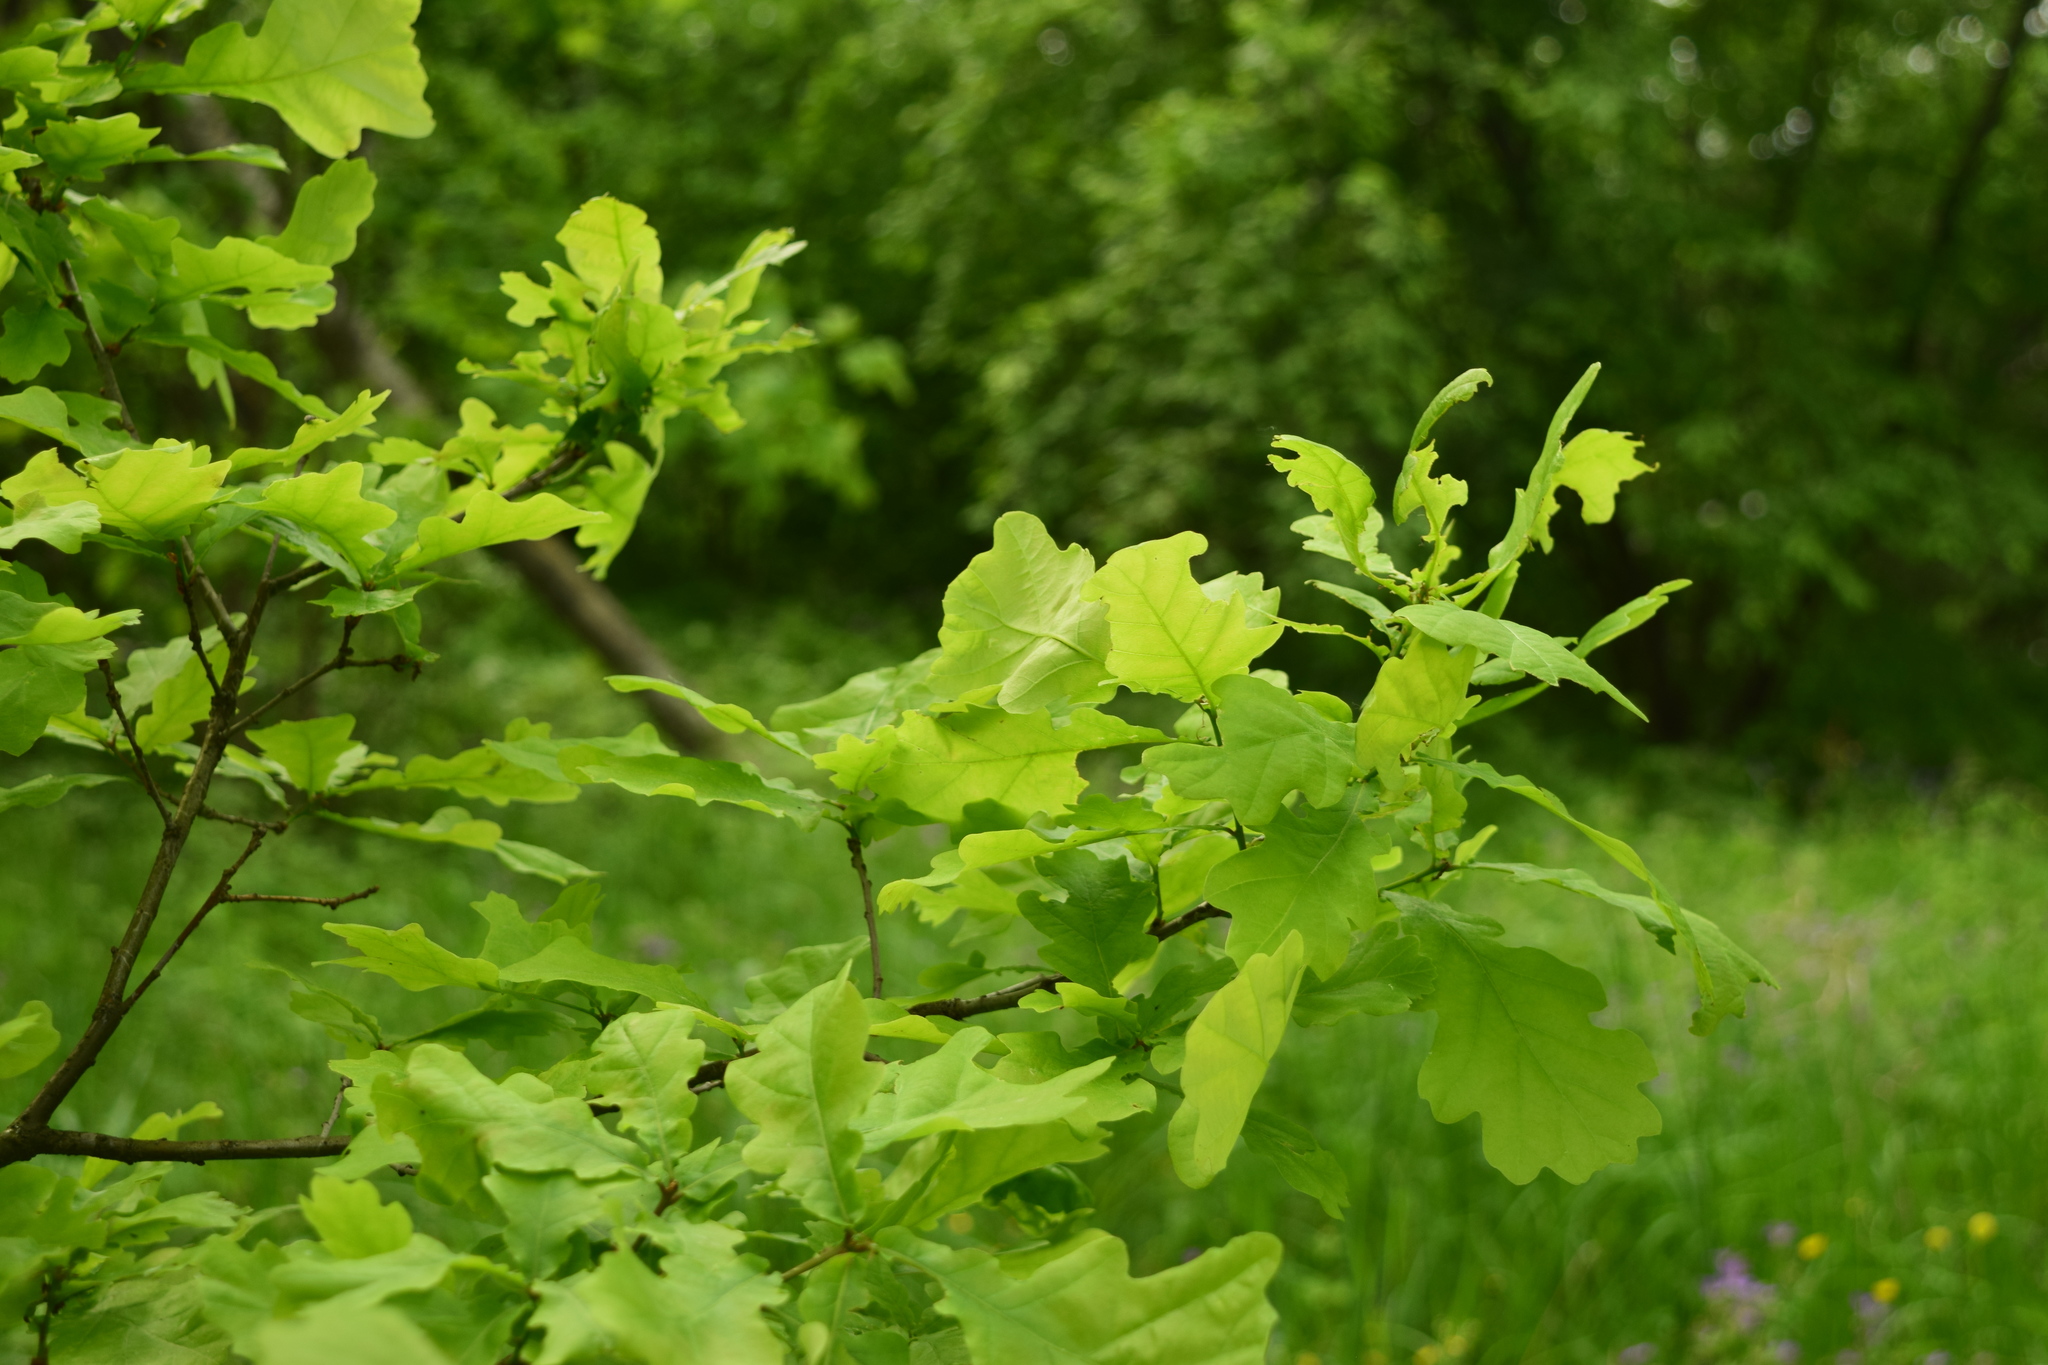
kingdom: Plantae
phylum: Tracheophyta
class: Magnoliopsida
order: Fagales
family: Fagaceae
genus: Quercus
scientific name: Quercus robur
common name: Pedunculate oak
